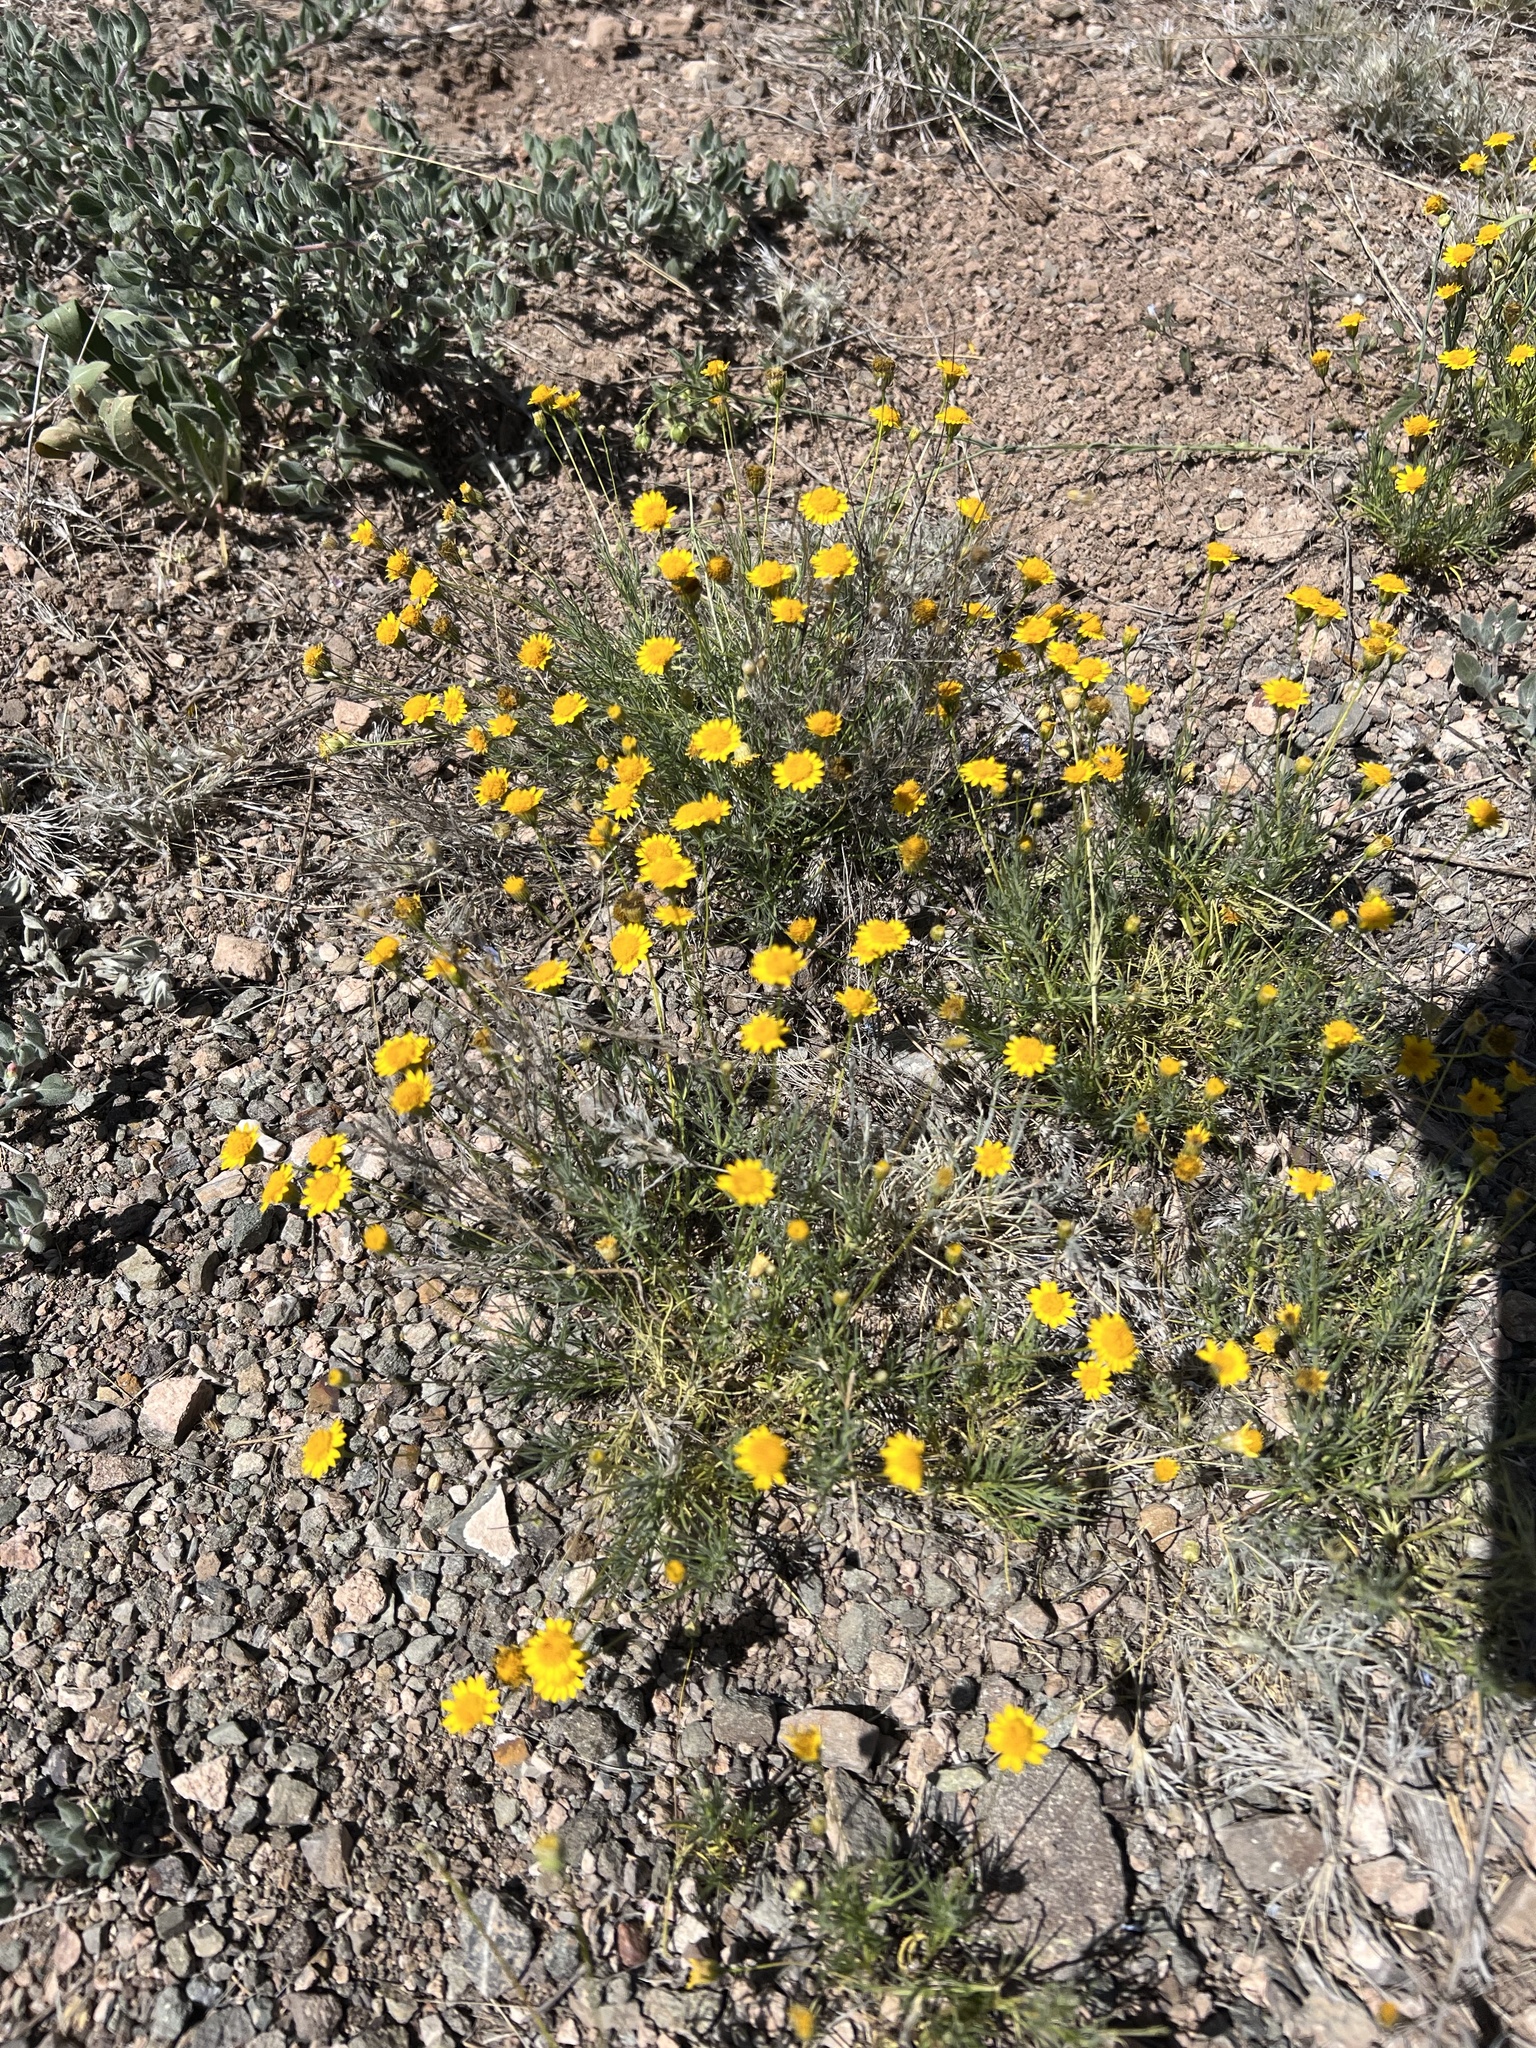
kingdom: Plantae
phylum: Tracheophyta
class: Magnoliopsida
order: Asterales
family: Asteraceae
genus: Thymophylla
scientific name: Thymophylla pentachaeta
